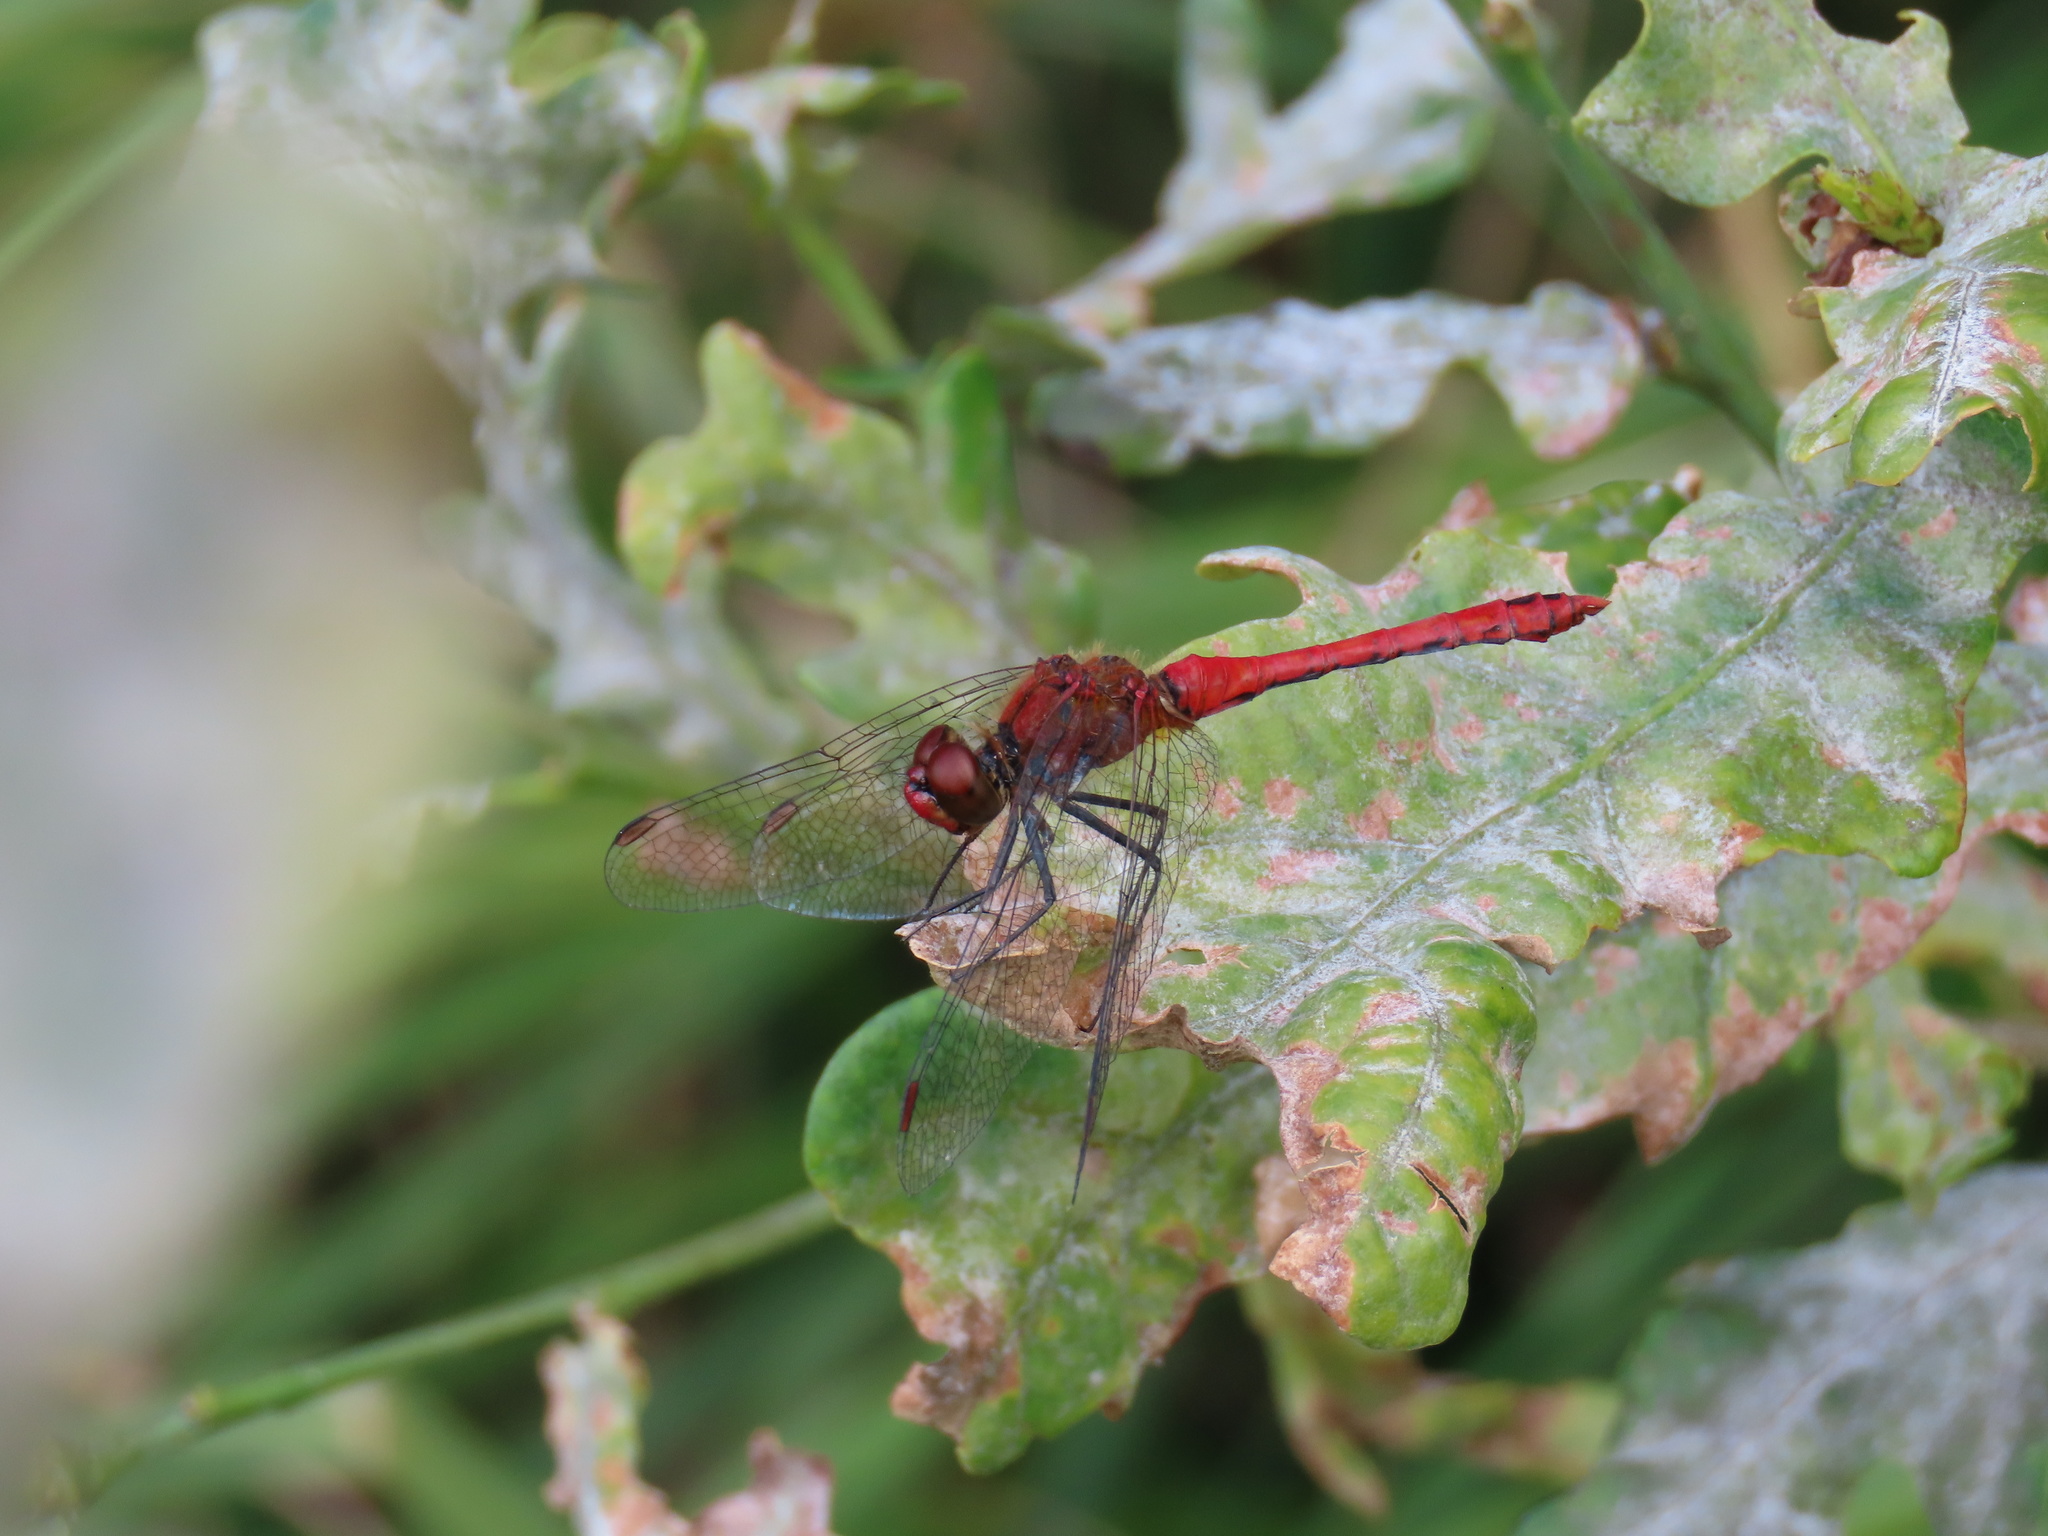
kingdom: Animalia
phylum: Arthropoda
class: Insecta
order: Odonata
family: Libellulidae
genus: Sympetrum
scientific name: Sympetrum sanguineum
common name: Ruddy darter
